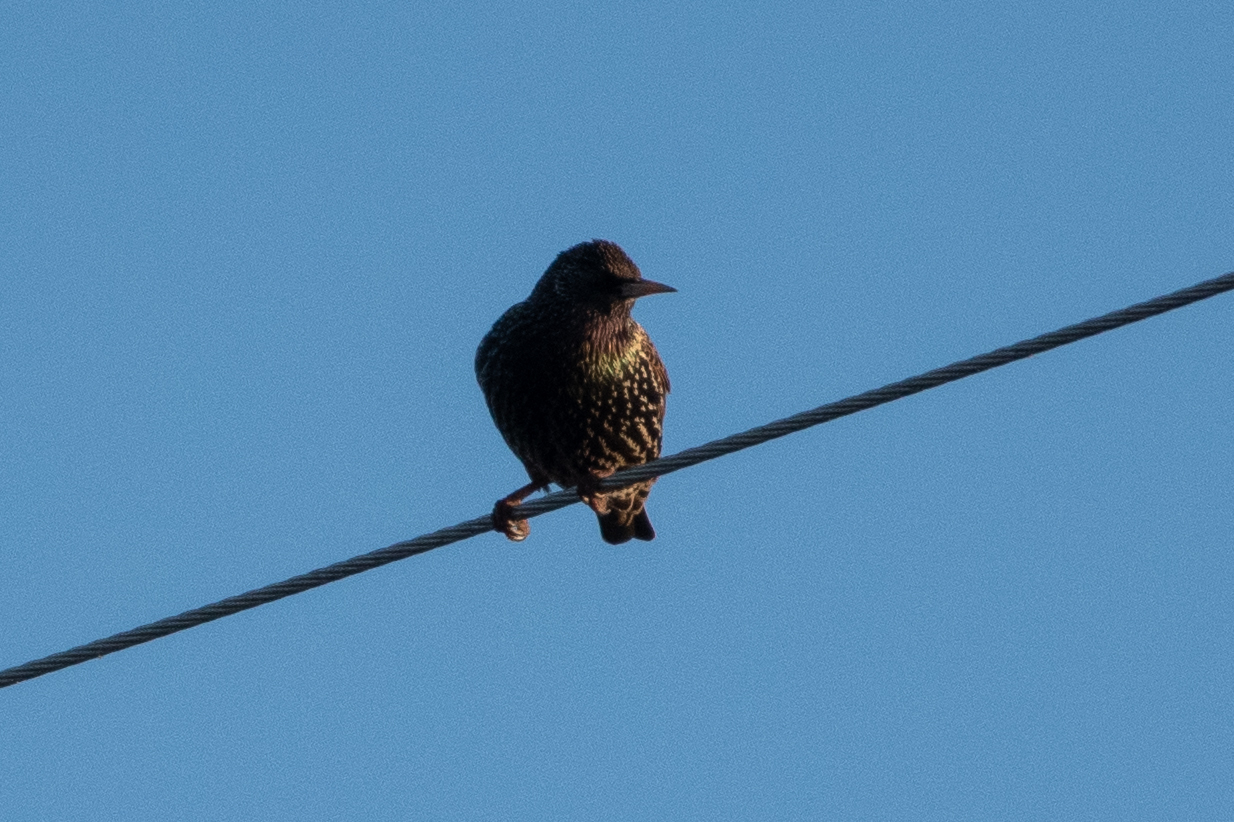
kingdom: Animalia
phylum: Chordata
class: Aves
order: Passeriformes
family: Sturnidae
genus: Sturnus
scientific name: Sturnus vulgaris
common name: Common starling
